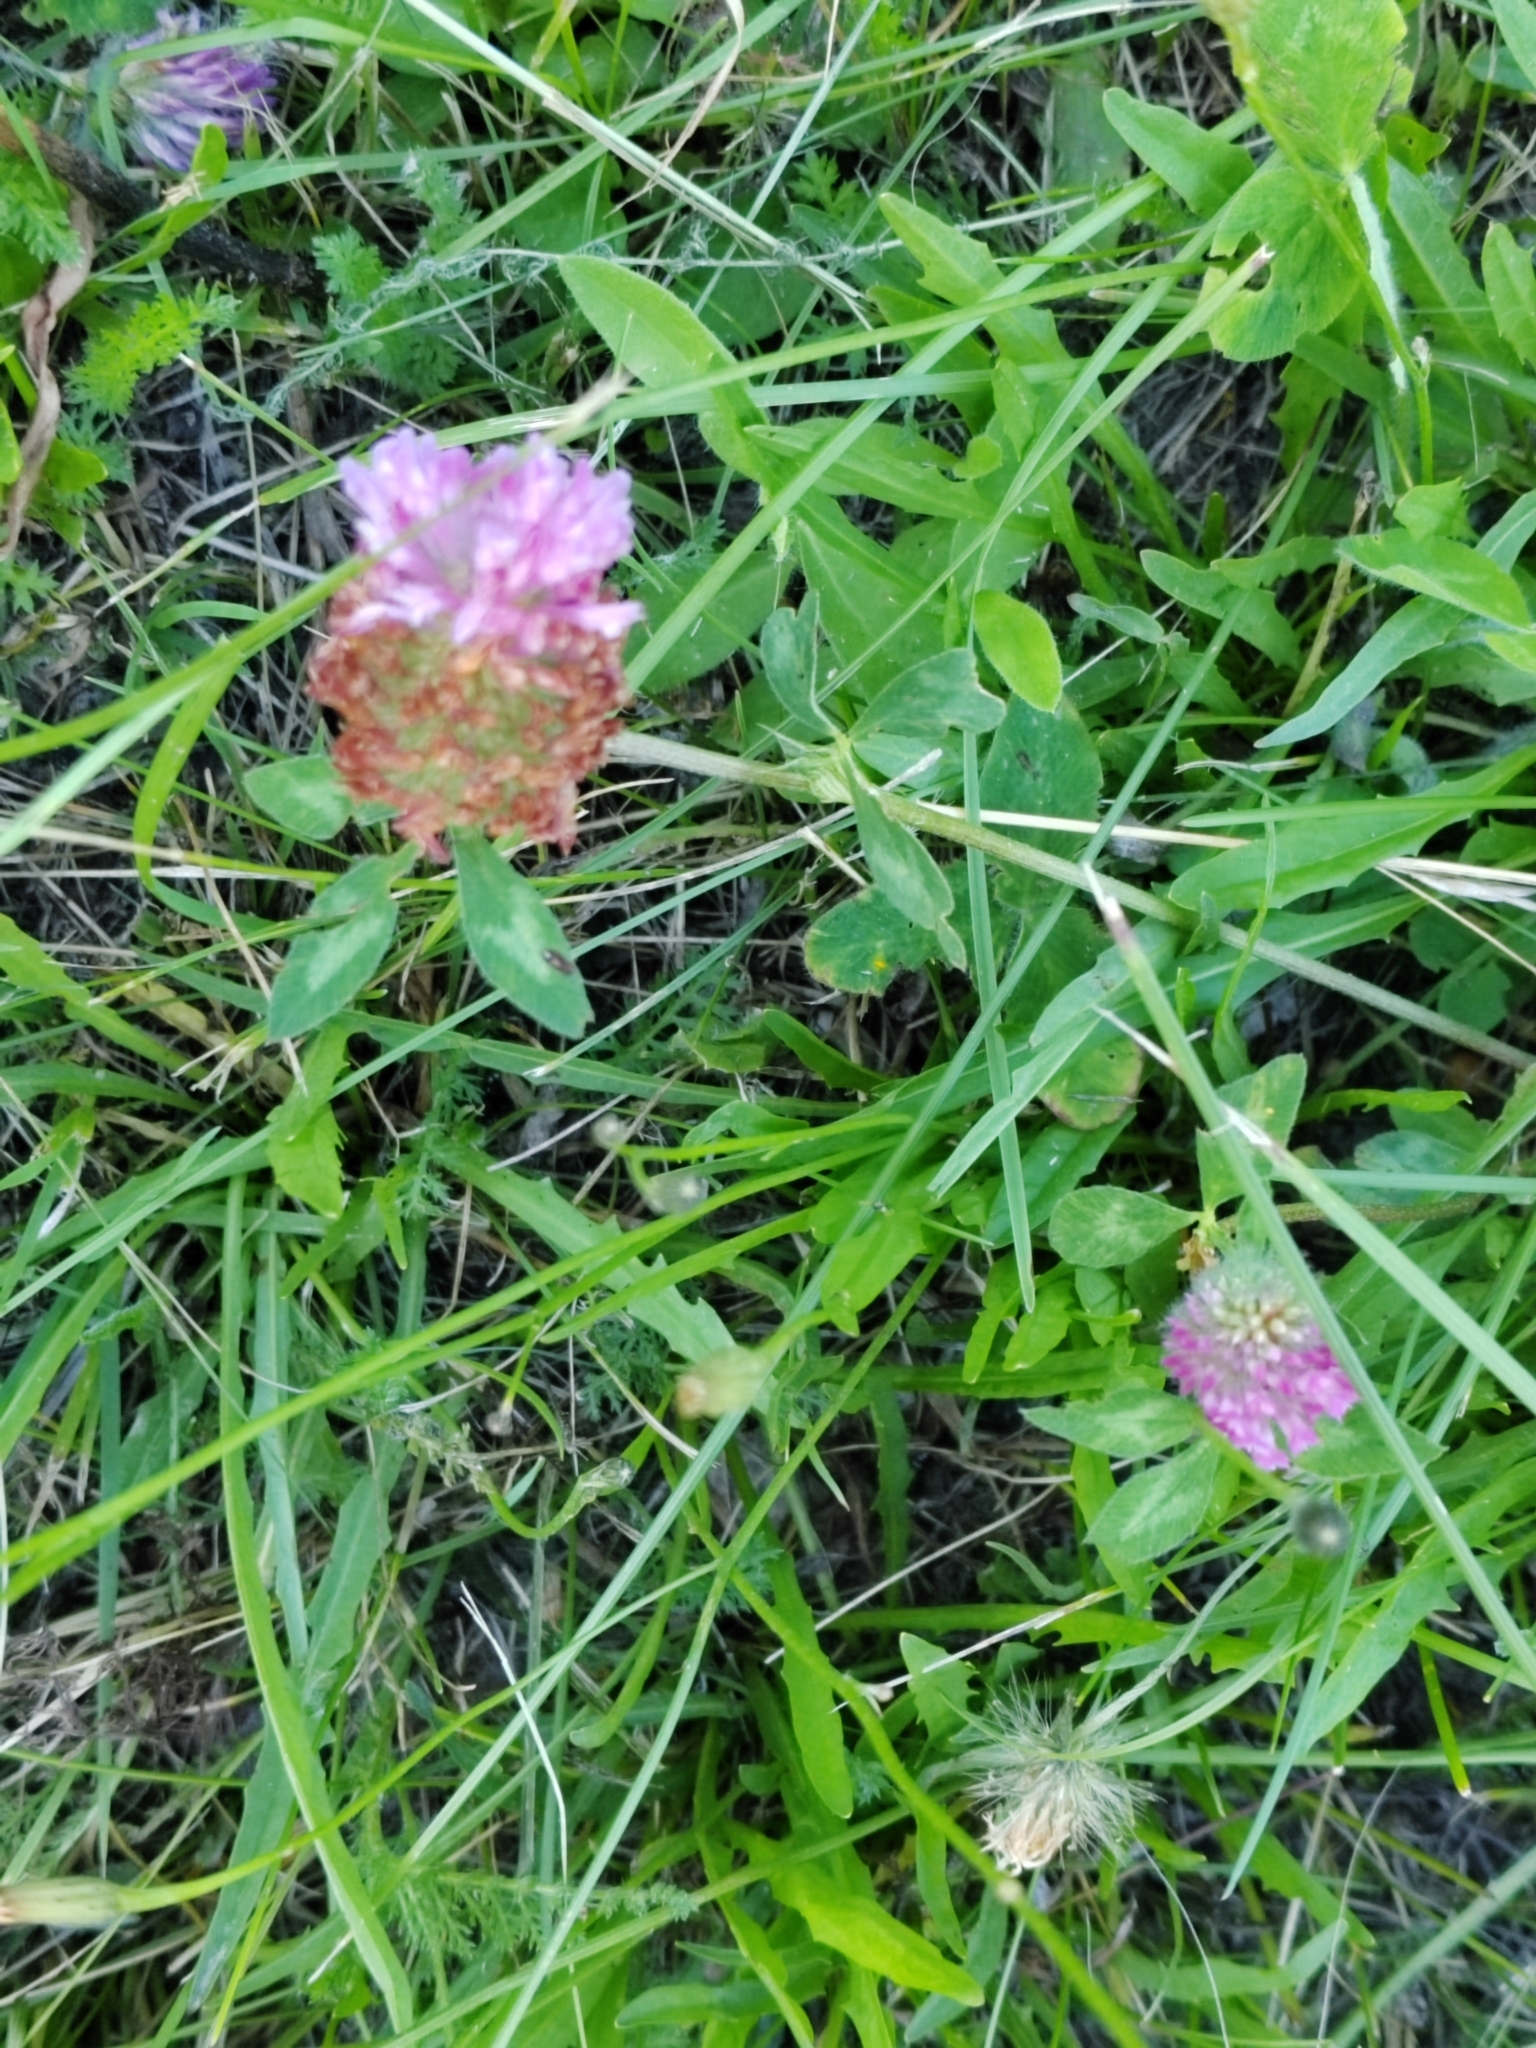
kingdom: Plantae
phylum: Tracheophyta
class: Magnoliopsida
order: Fabales
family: Fabaceae
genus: Trifolium
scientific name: Trifolium pratense
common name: Red clover
